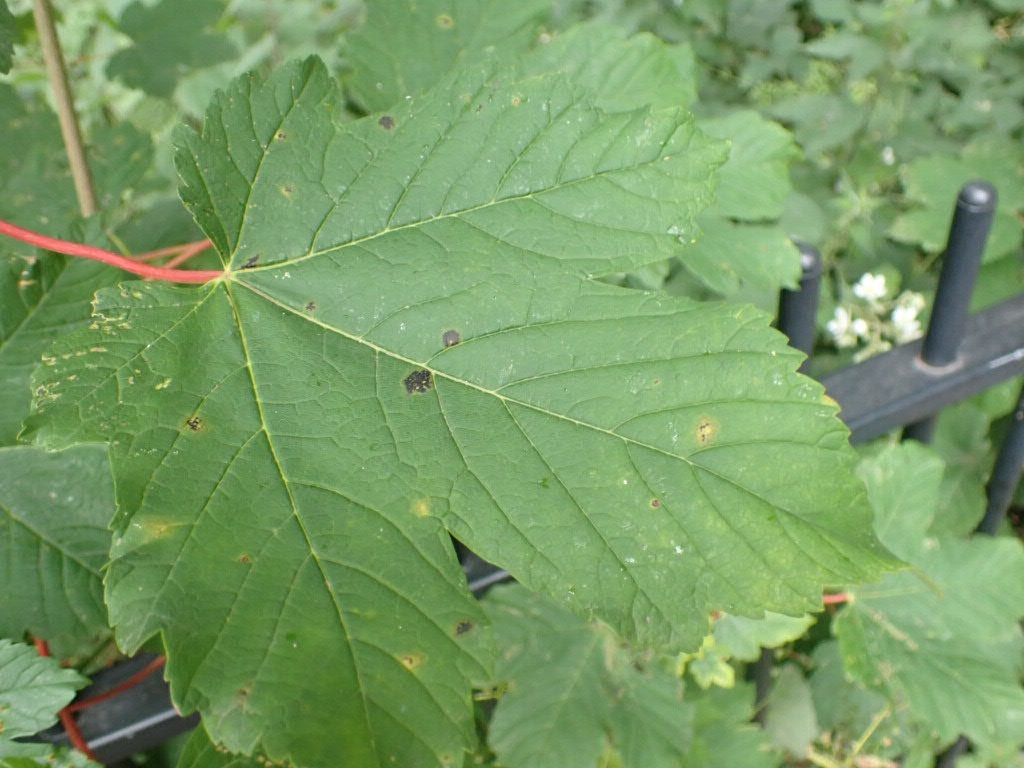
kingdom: Fungi
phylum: Ascomycota
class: Leotiomycetes
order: Rhytismatales
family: Rhytismataceae
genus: Rhytisma
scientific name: Rhytisma acerinum
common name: European tar spot
